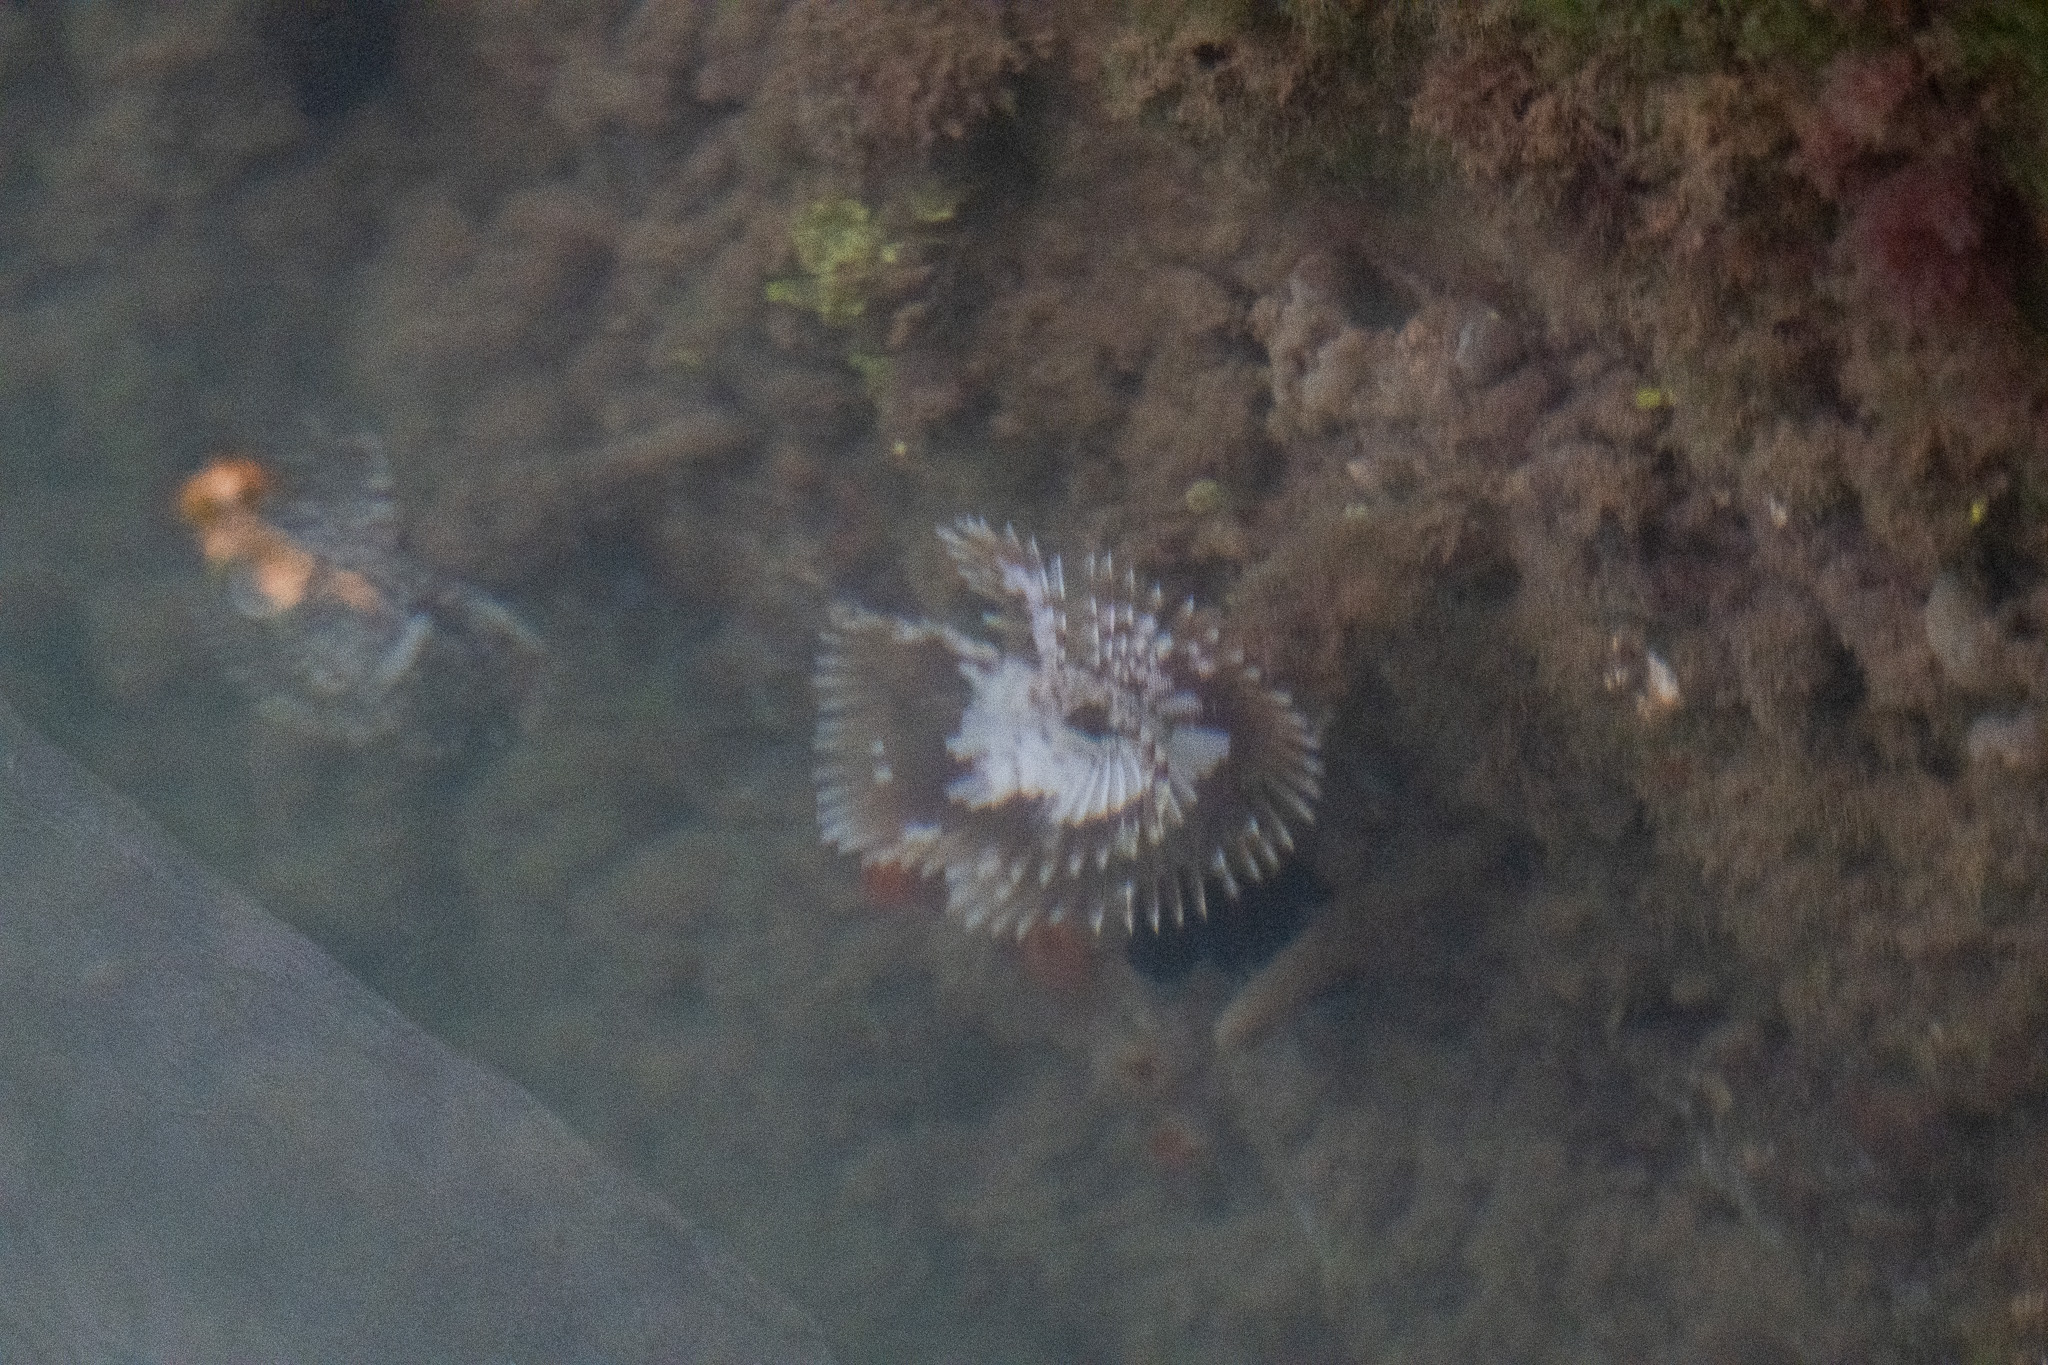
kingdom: Animalia
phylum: Annelida
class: Polychaeta
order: Sabellida
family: Sabellidae
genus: Sabellastarte
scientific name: Sabellastarte magnifica
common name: Giant feather-duster worm
